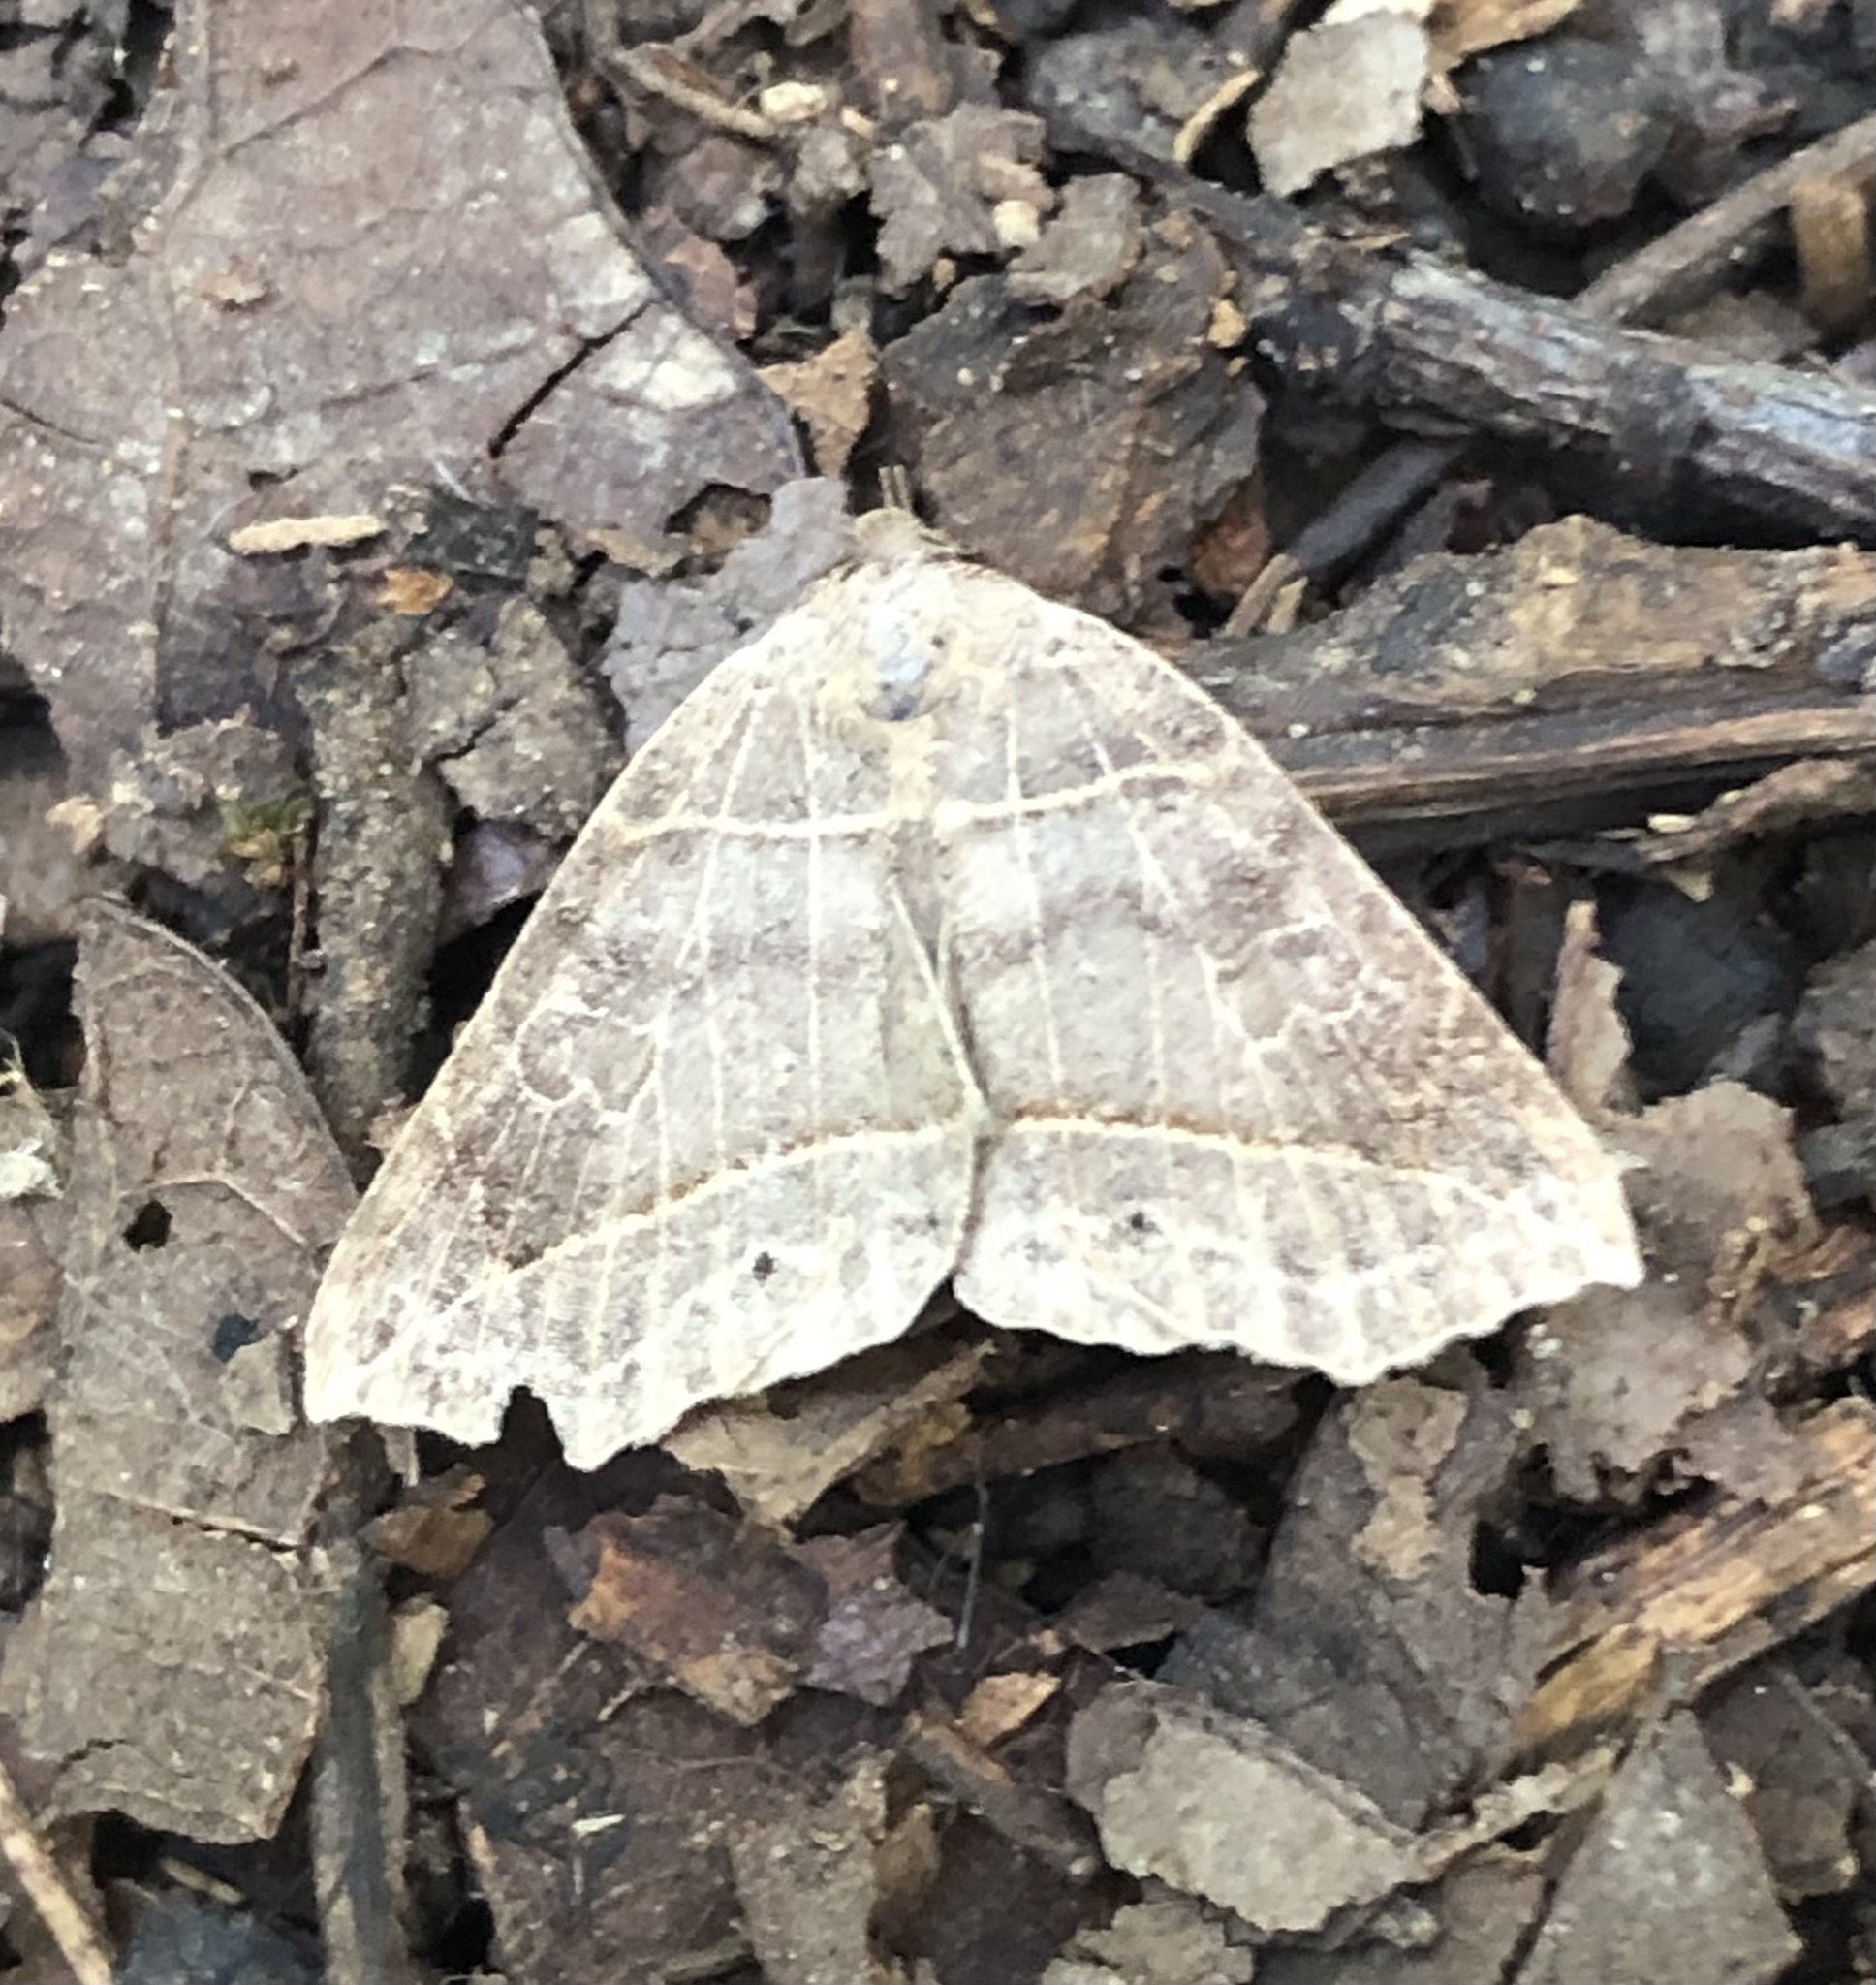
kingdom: Animalia
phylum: Arthropoda
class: Insecta
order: Lepidoptera
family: Erebidae
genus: Isogona
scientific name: Isogona tenuis
